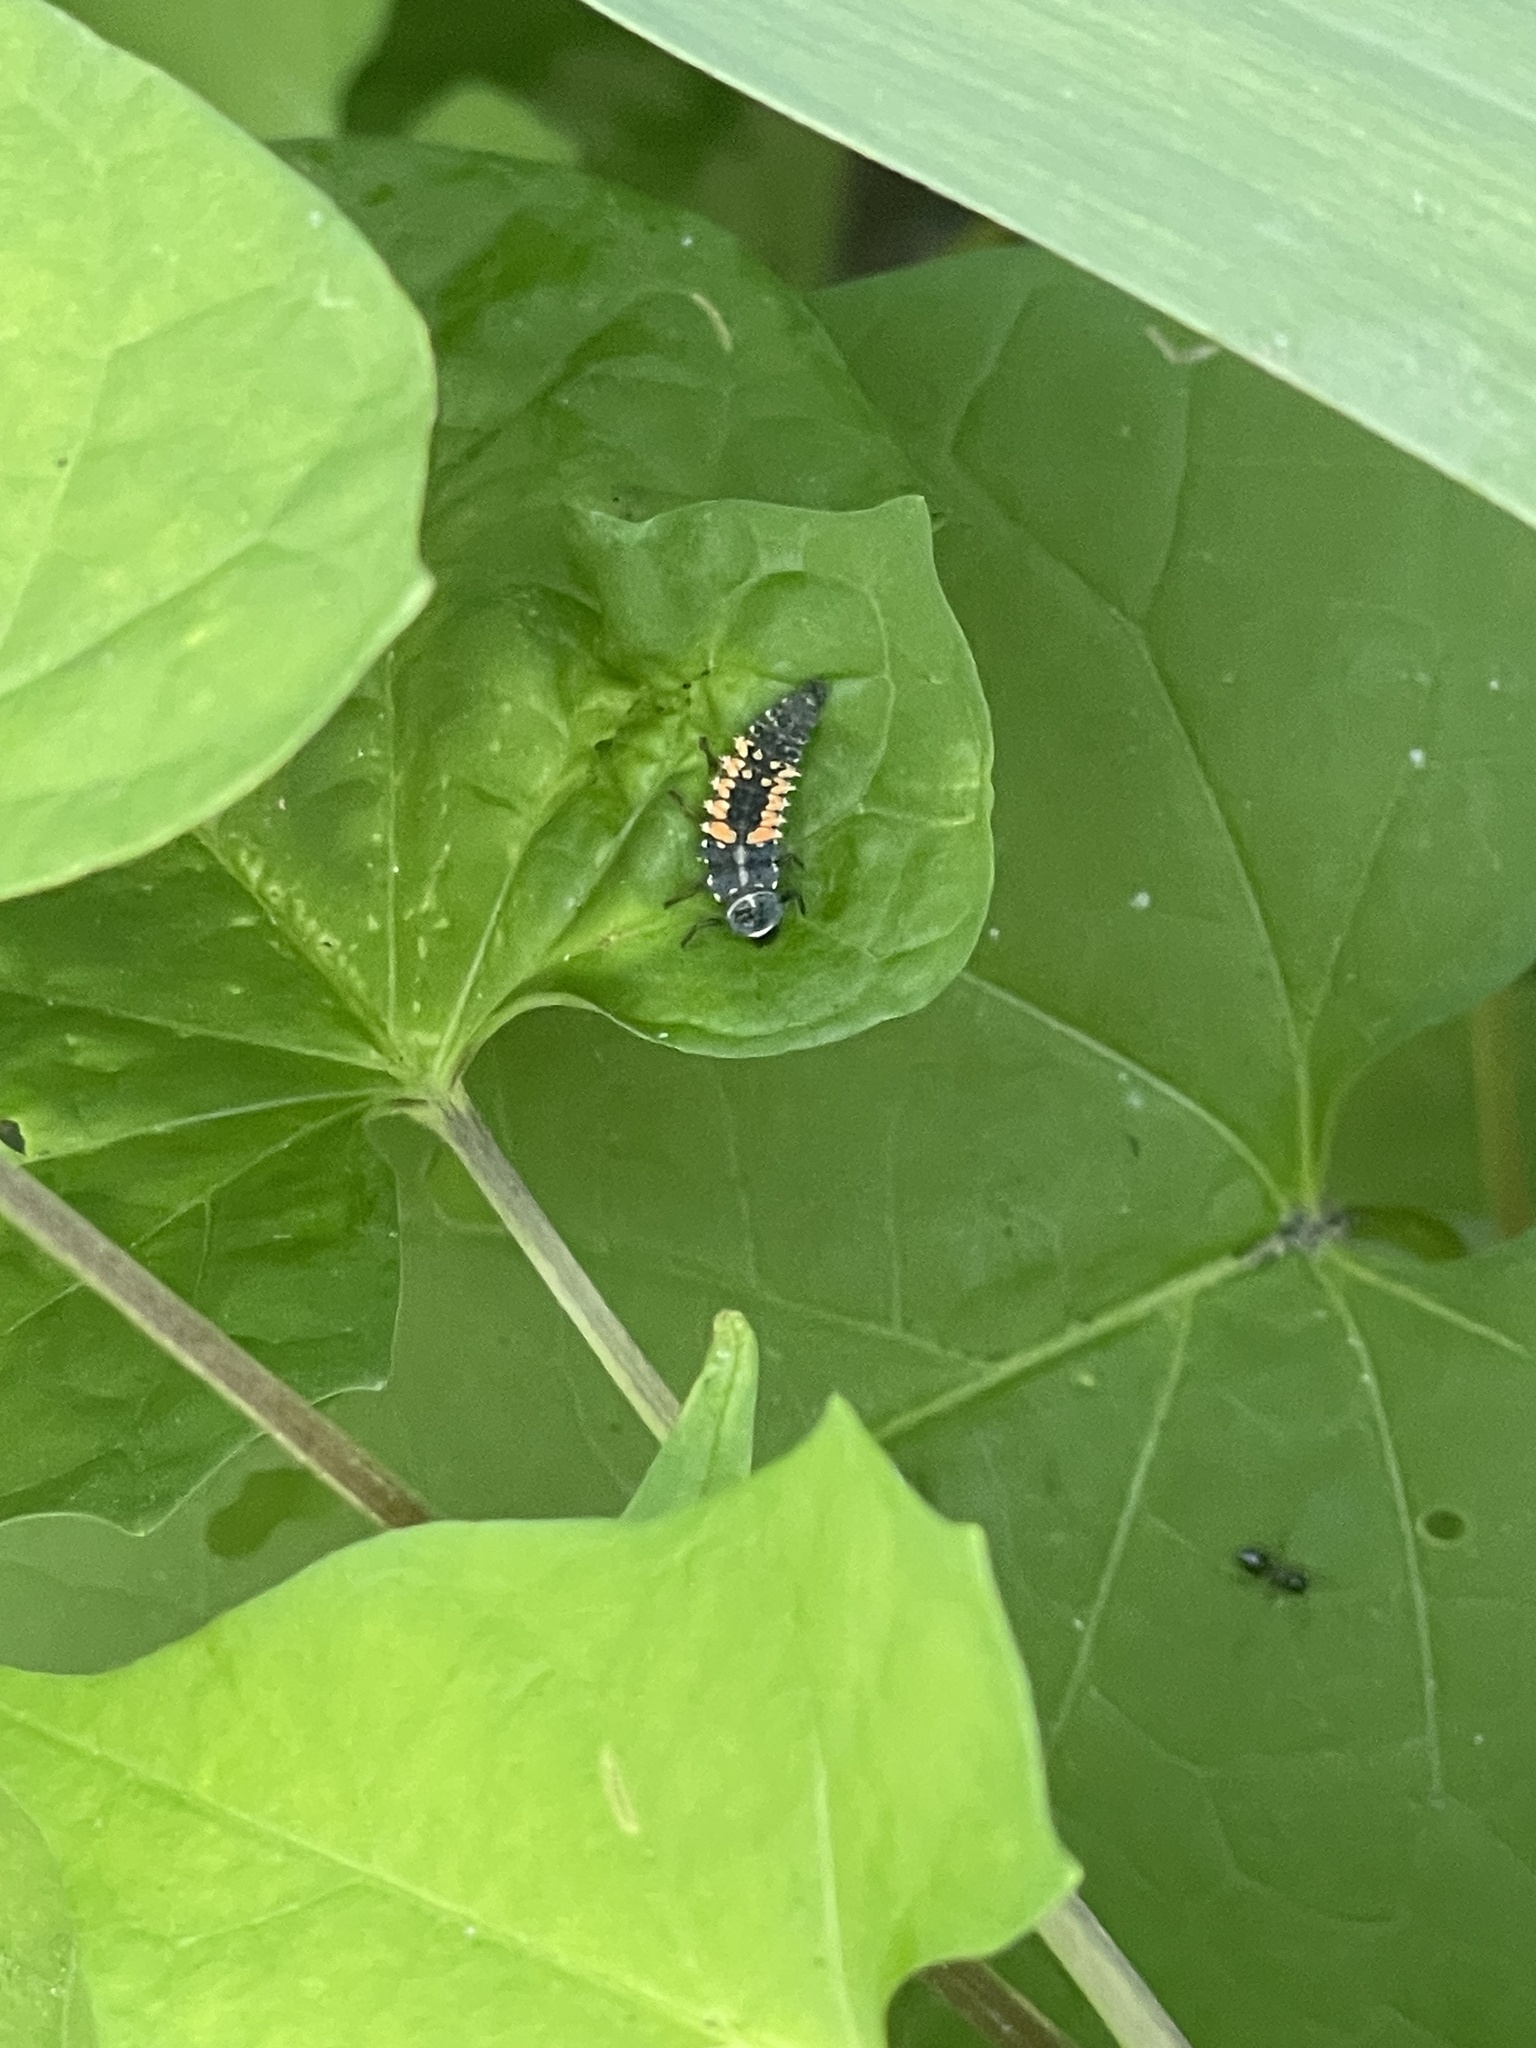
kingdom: Animalia
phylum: Arthropoda
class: Insecta
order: Coleoptera
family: Coccinellidae
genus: Harmonia
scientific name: Harmonia axyridis
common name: Harlequin ladybird
